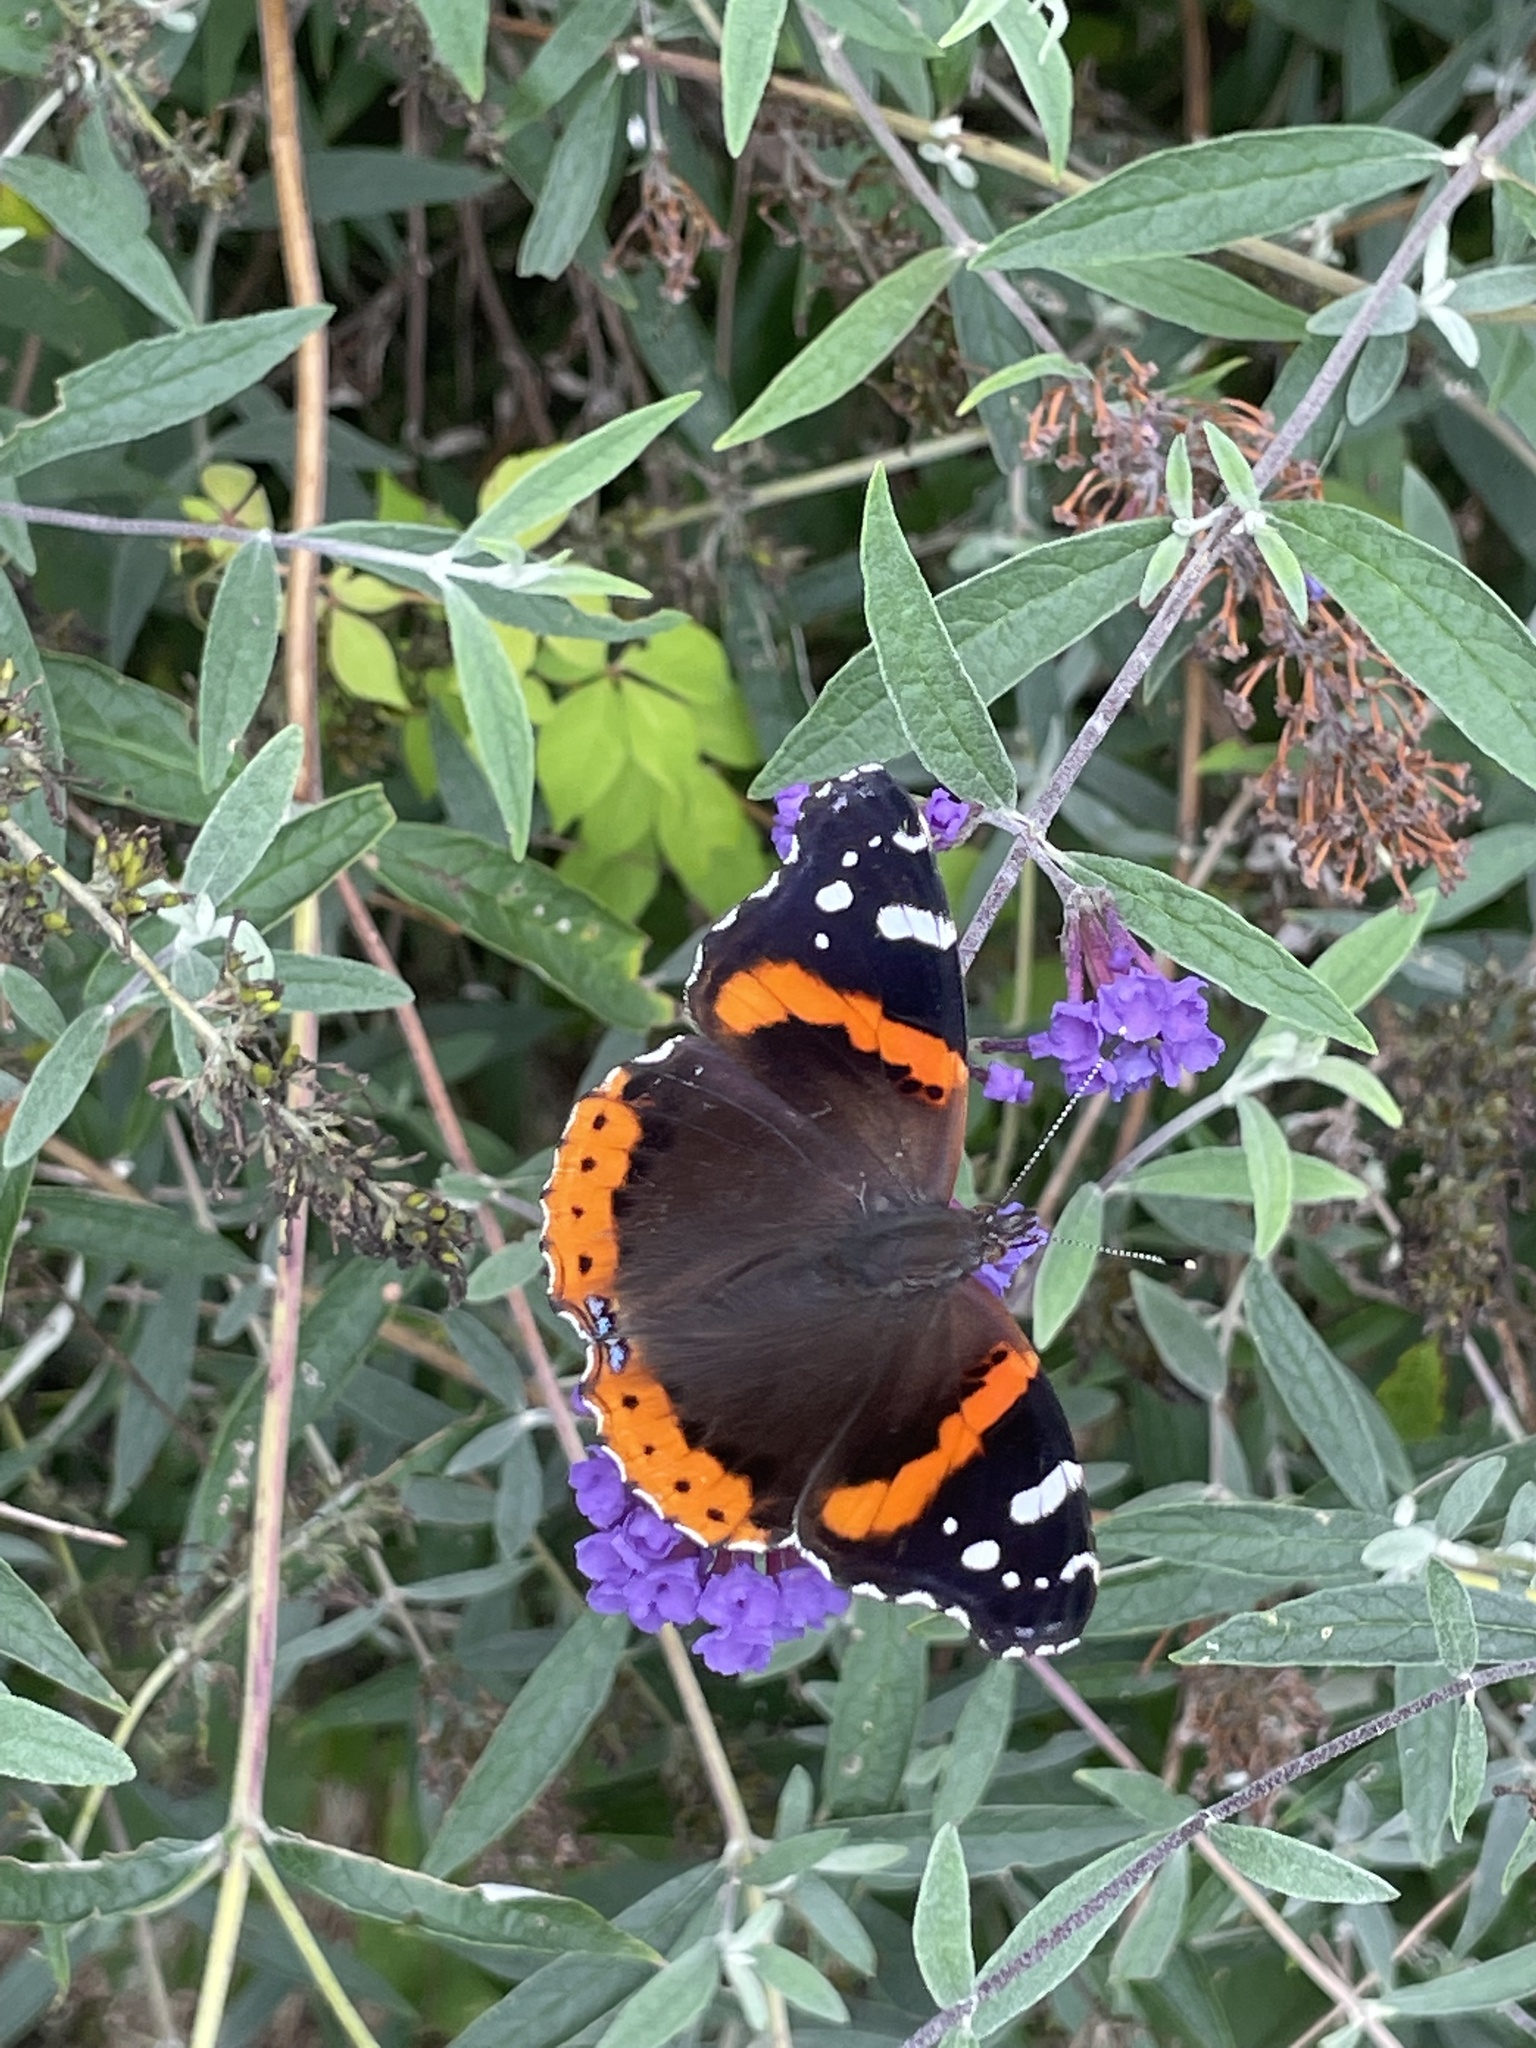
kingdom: Animalia
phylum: Arthropoda
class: Insecta
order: Lepidoptera
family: Nymphalidae
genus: Vanessa
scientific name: Vanessa atalanta
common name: Red admiral
